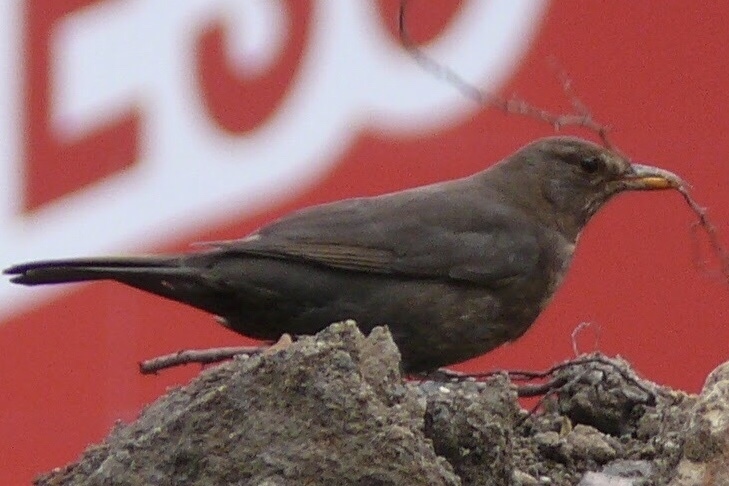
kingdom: Animalia
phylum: Chordata
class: Aves
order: Passeriformes
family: Turdidae
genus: Turdus
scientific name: Turdus merula
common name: Common blackbird
